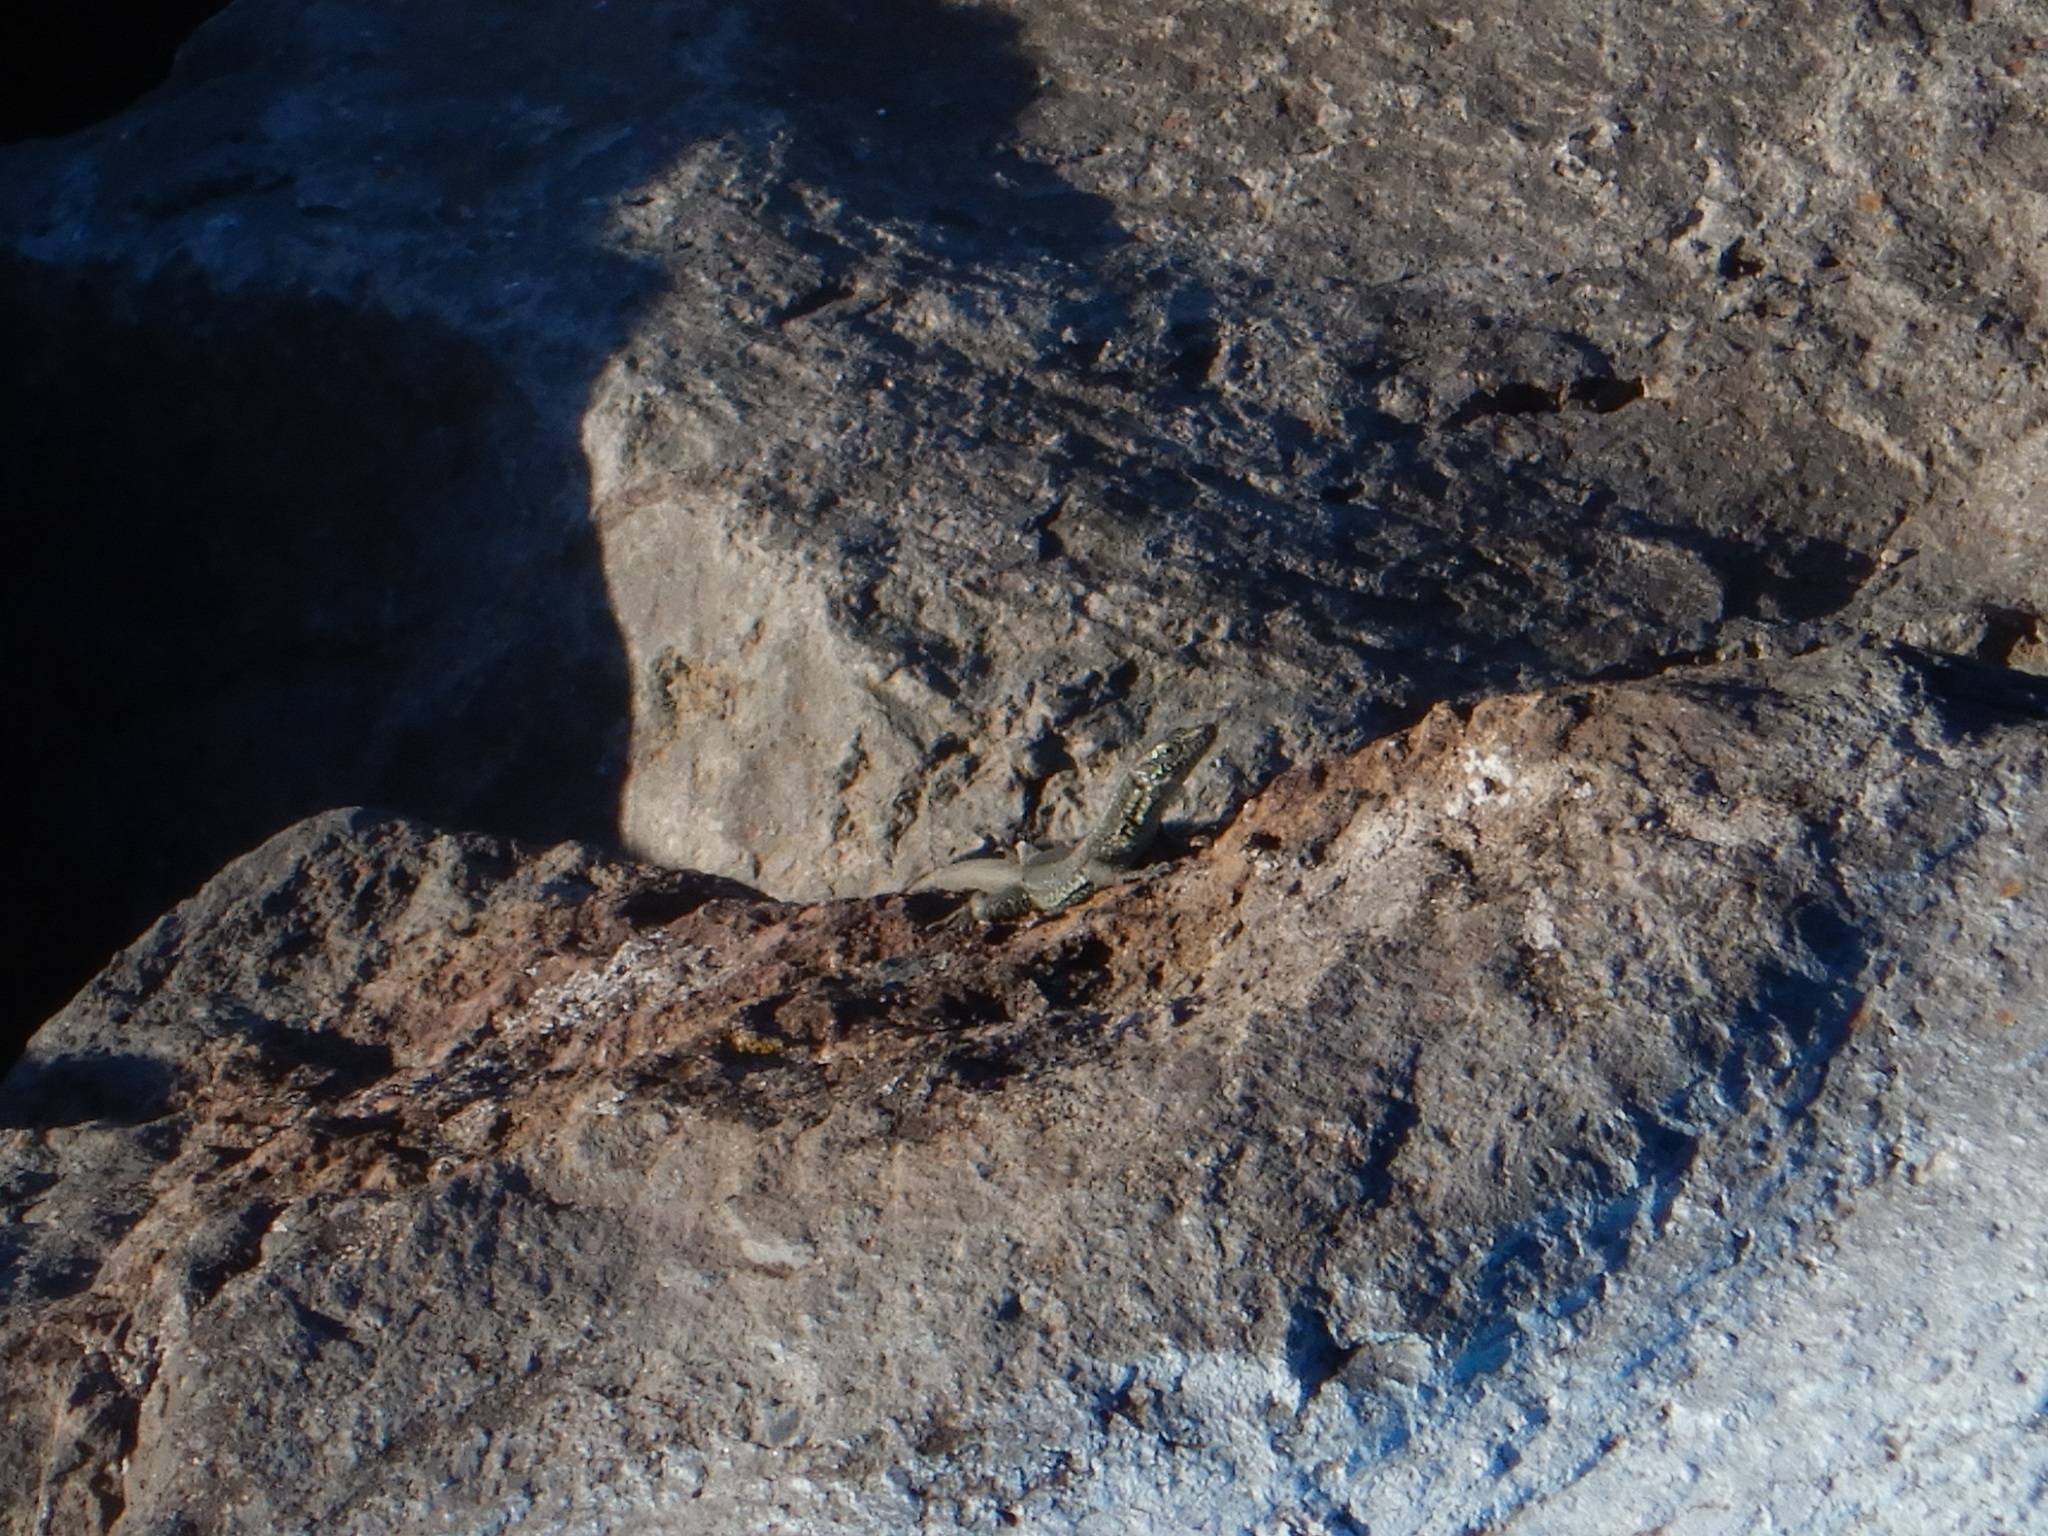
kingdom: Animalia
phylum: Chordata
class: Squamata
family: Lacertidae
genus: Teira
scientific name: Teira dugesii
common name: Madeira lizard
